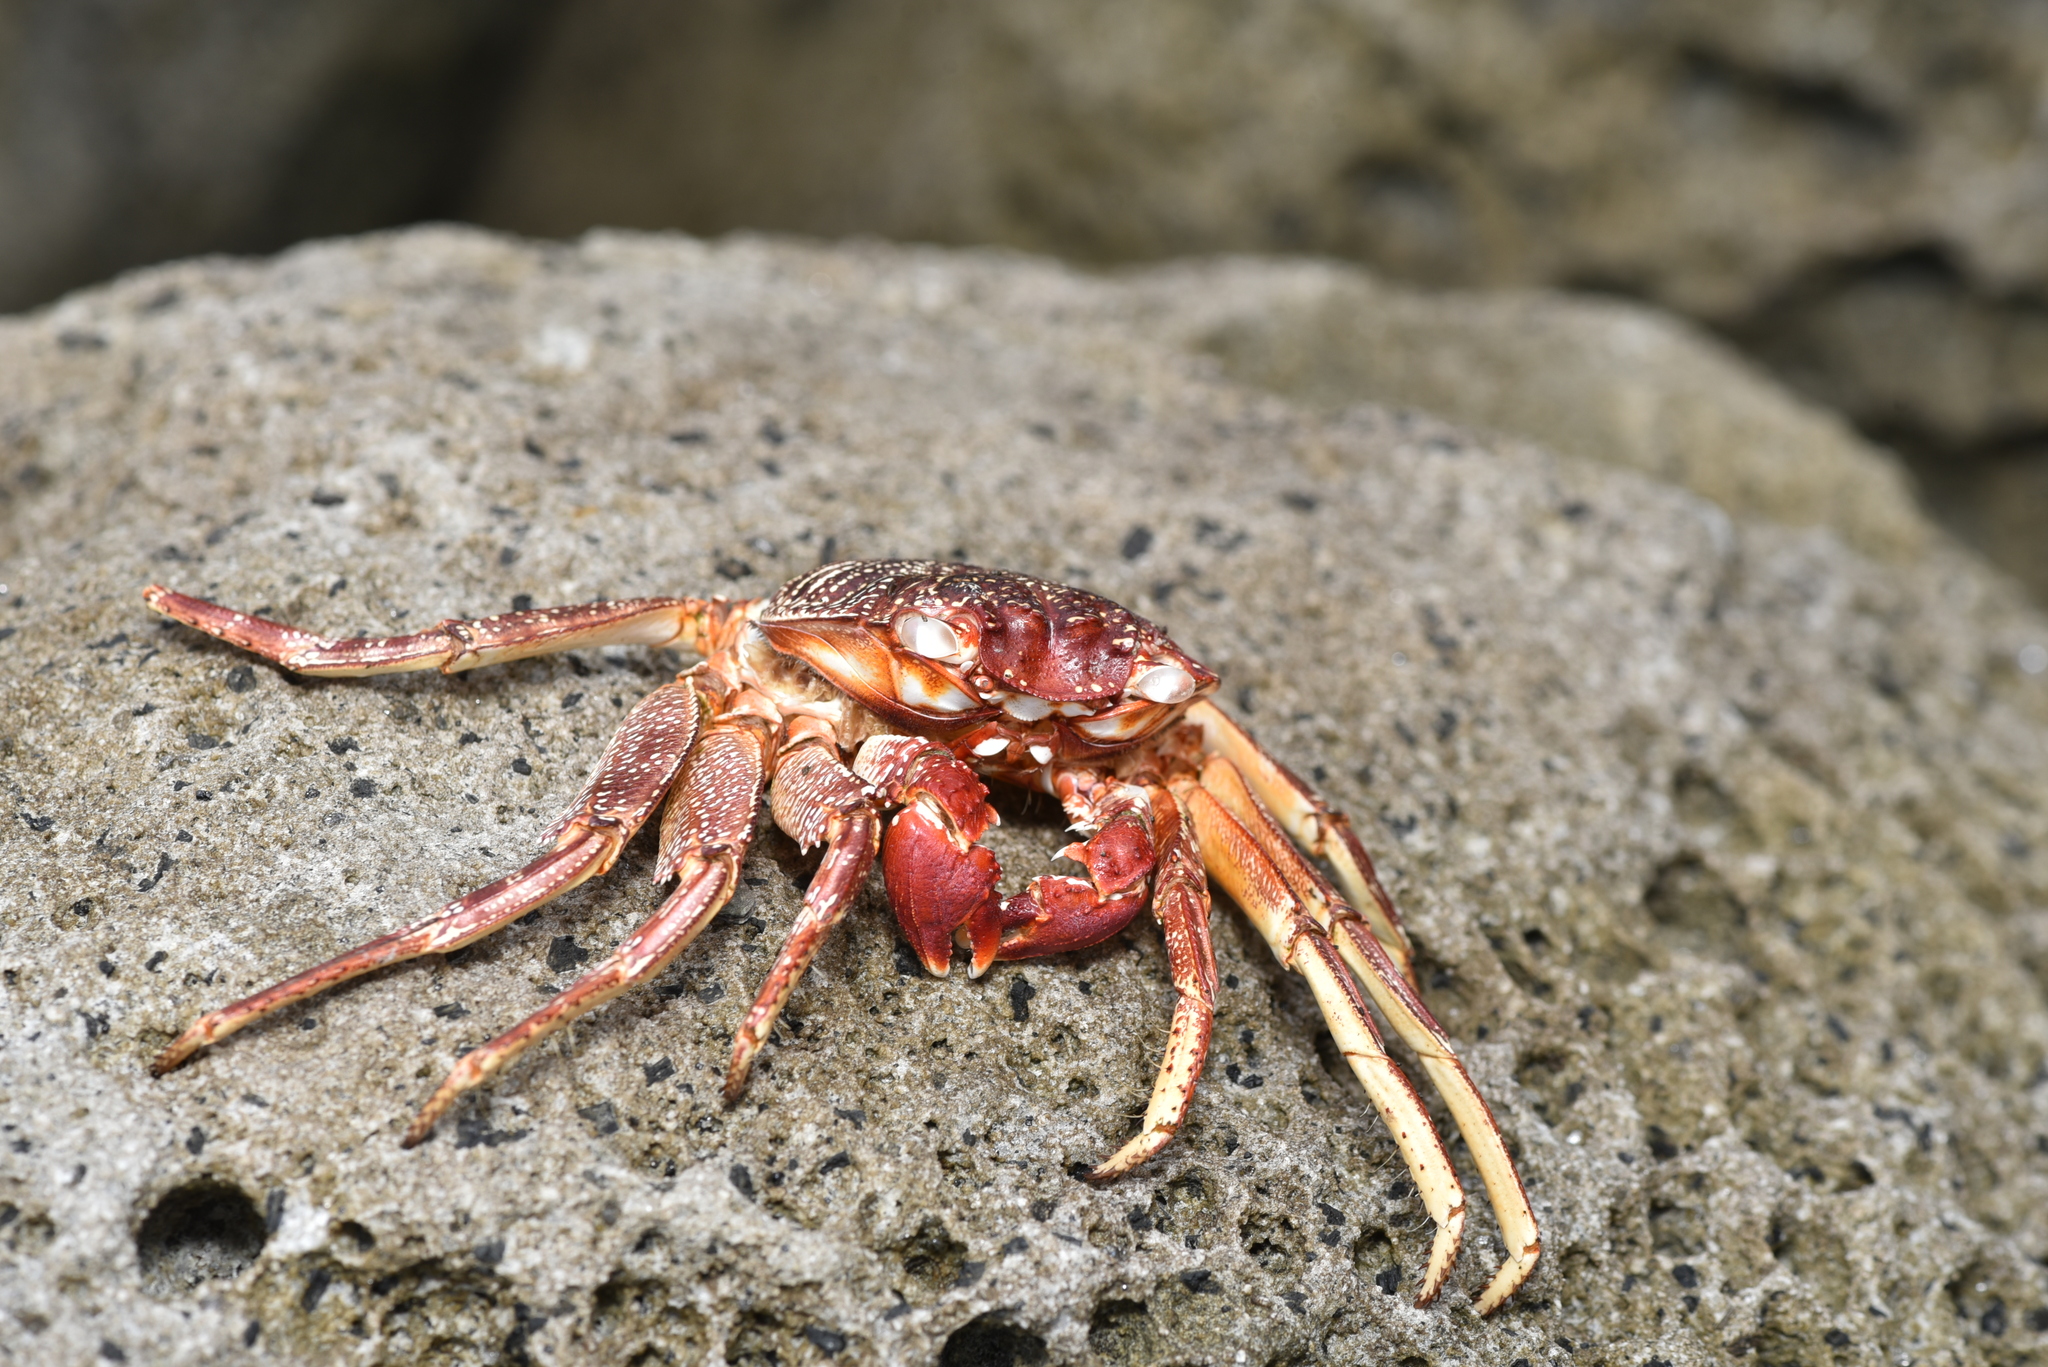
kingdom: Animalia
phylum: Arthropoda
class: Malacostraca
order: Decapoda
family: Grapsidae
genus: Grapsus
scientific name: Grapsus tenuicrustatus
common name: Natal lightfoot crab
